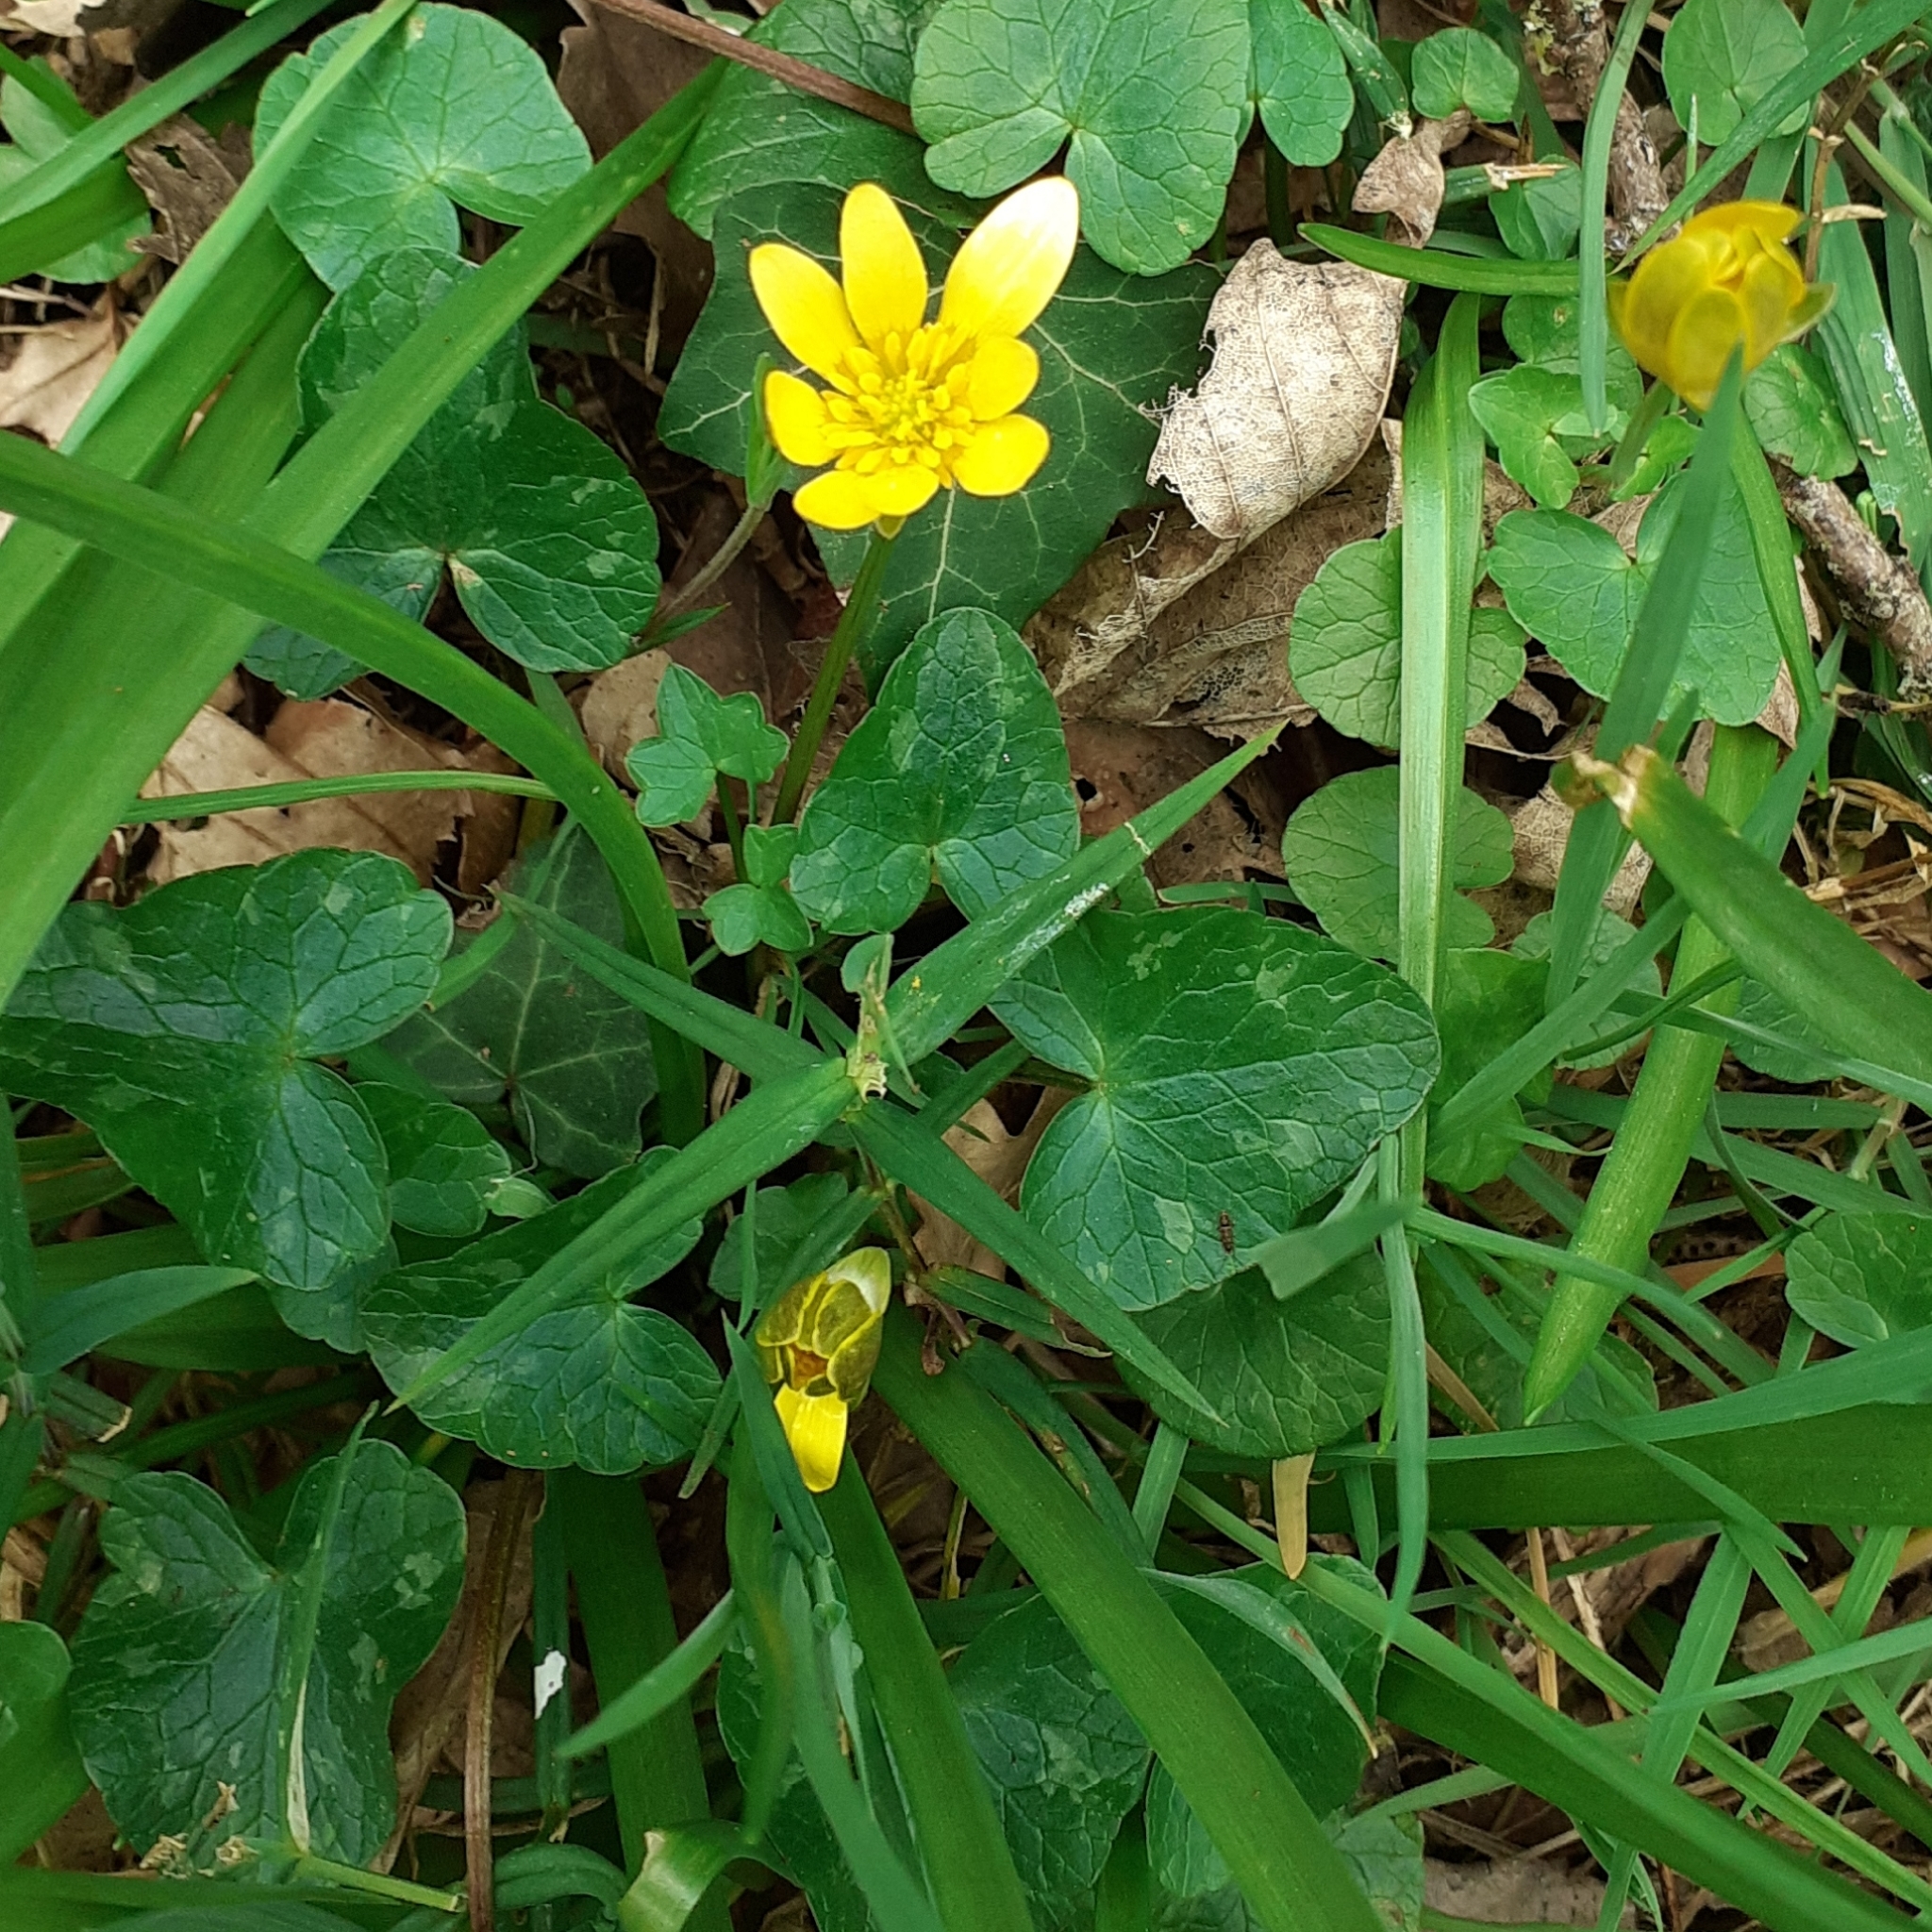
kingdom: Plantae
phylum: Tracheophyta
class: Magnoliopsida
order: Ranunculales
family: Ranunculaceae
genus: Ficaria
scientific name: Ficaria verna
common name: Lesser celandine
